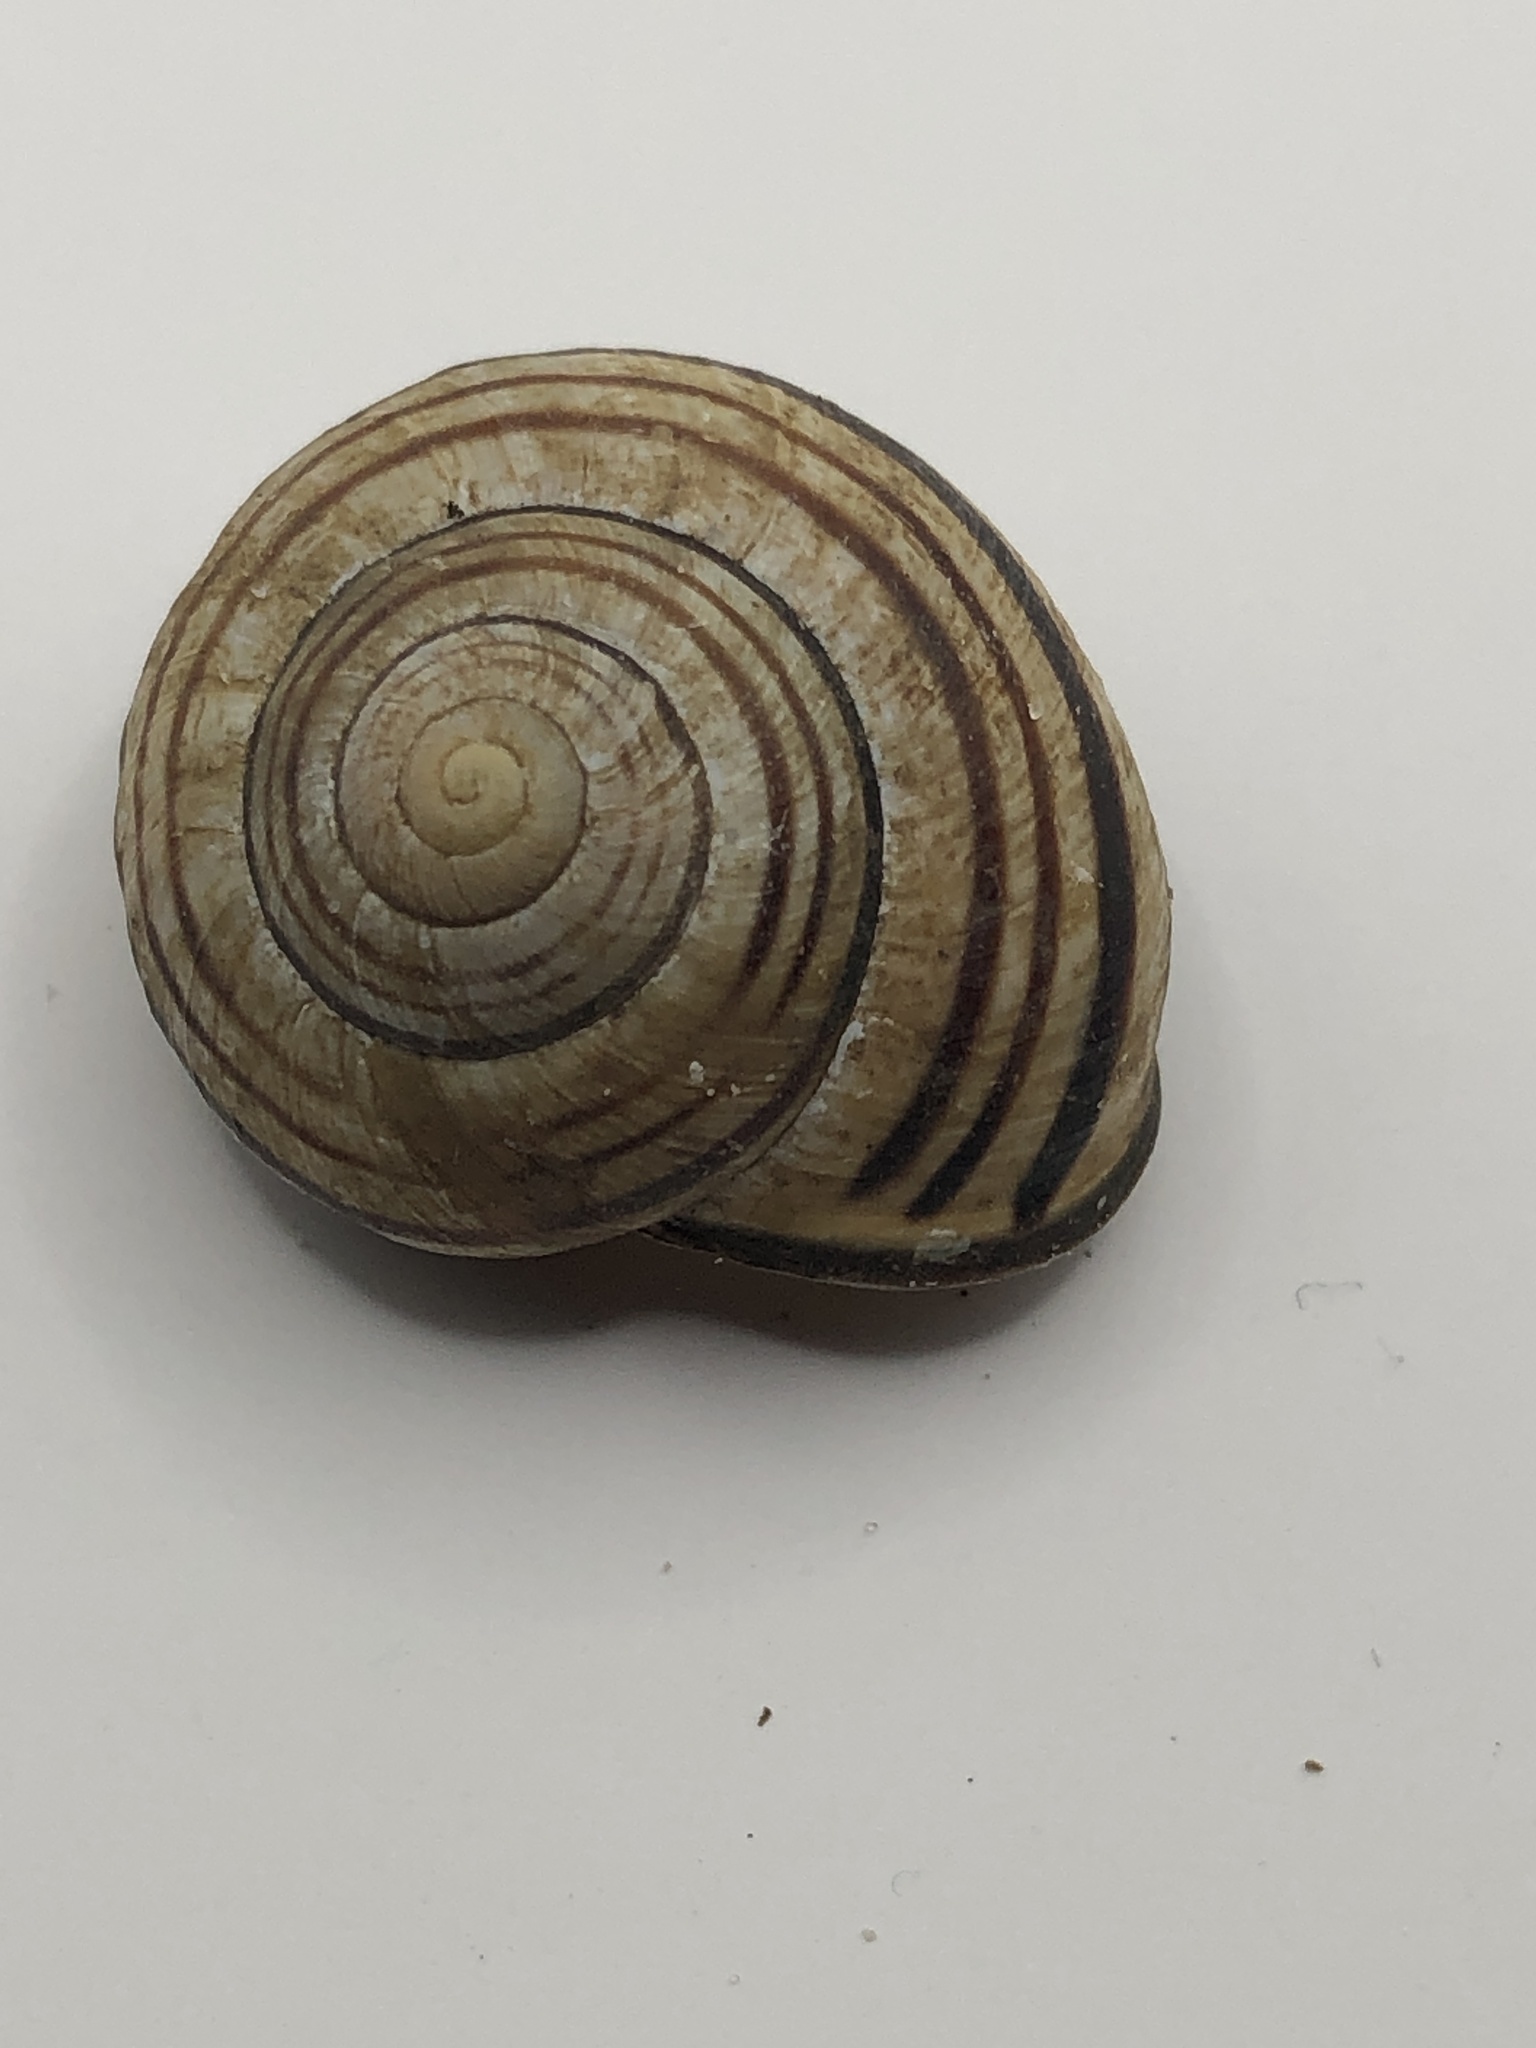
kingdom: Animalia
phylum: Mollusca
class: Gastropoda
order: Stylommatophora
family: Helicidae
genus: Cepaea
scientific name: Cepaea nemoralis
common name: Grovesnail
